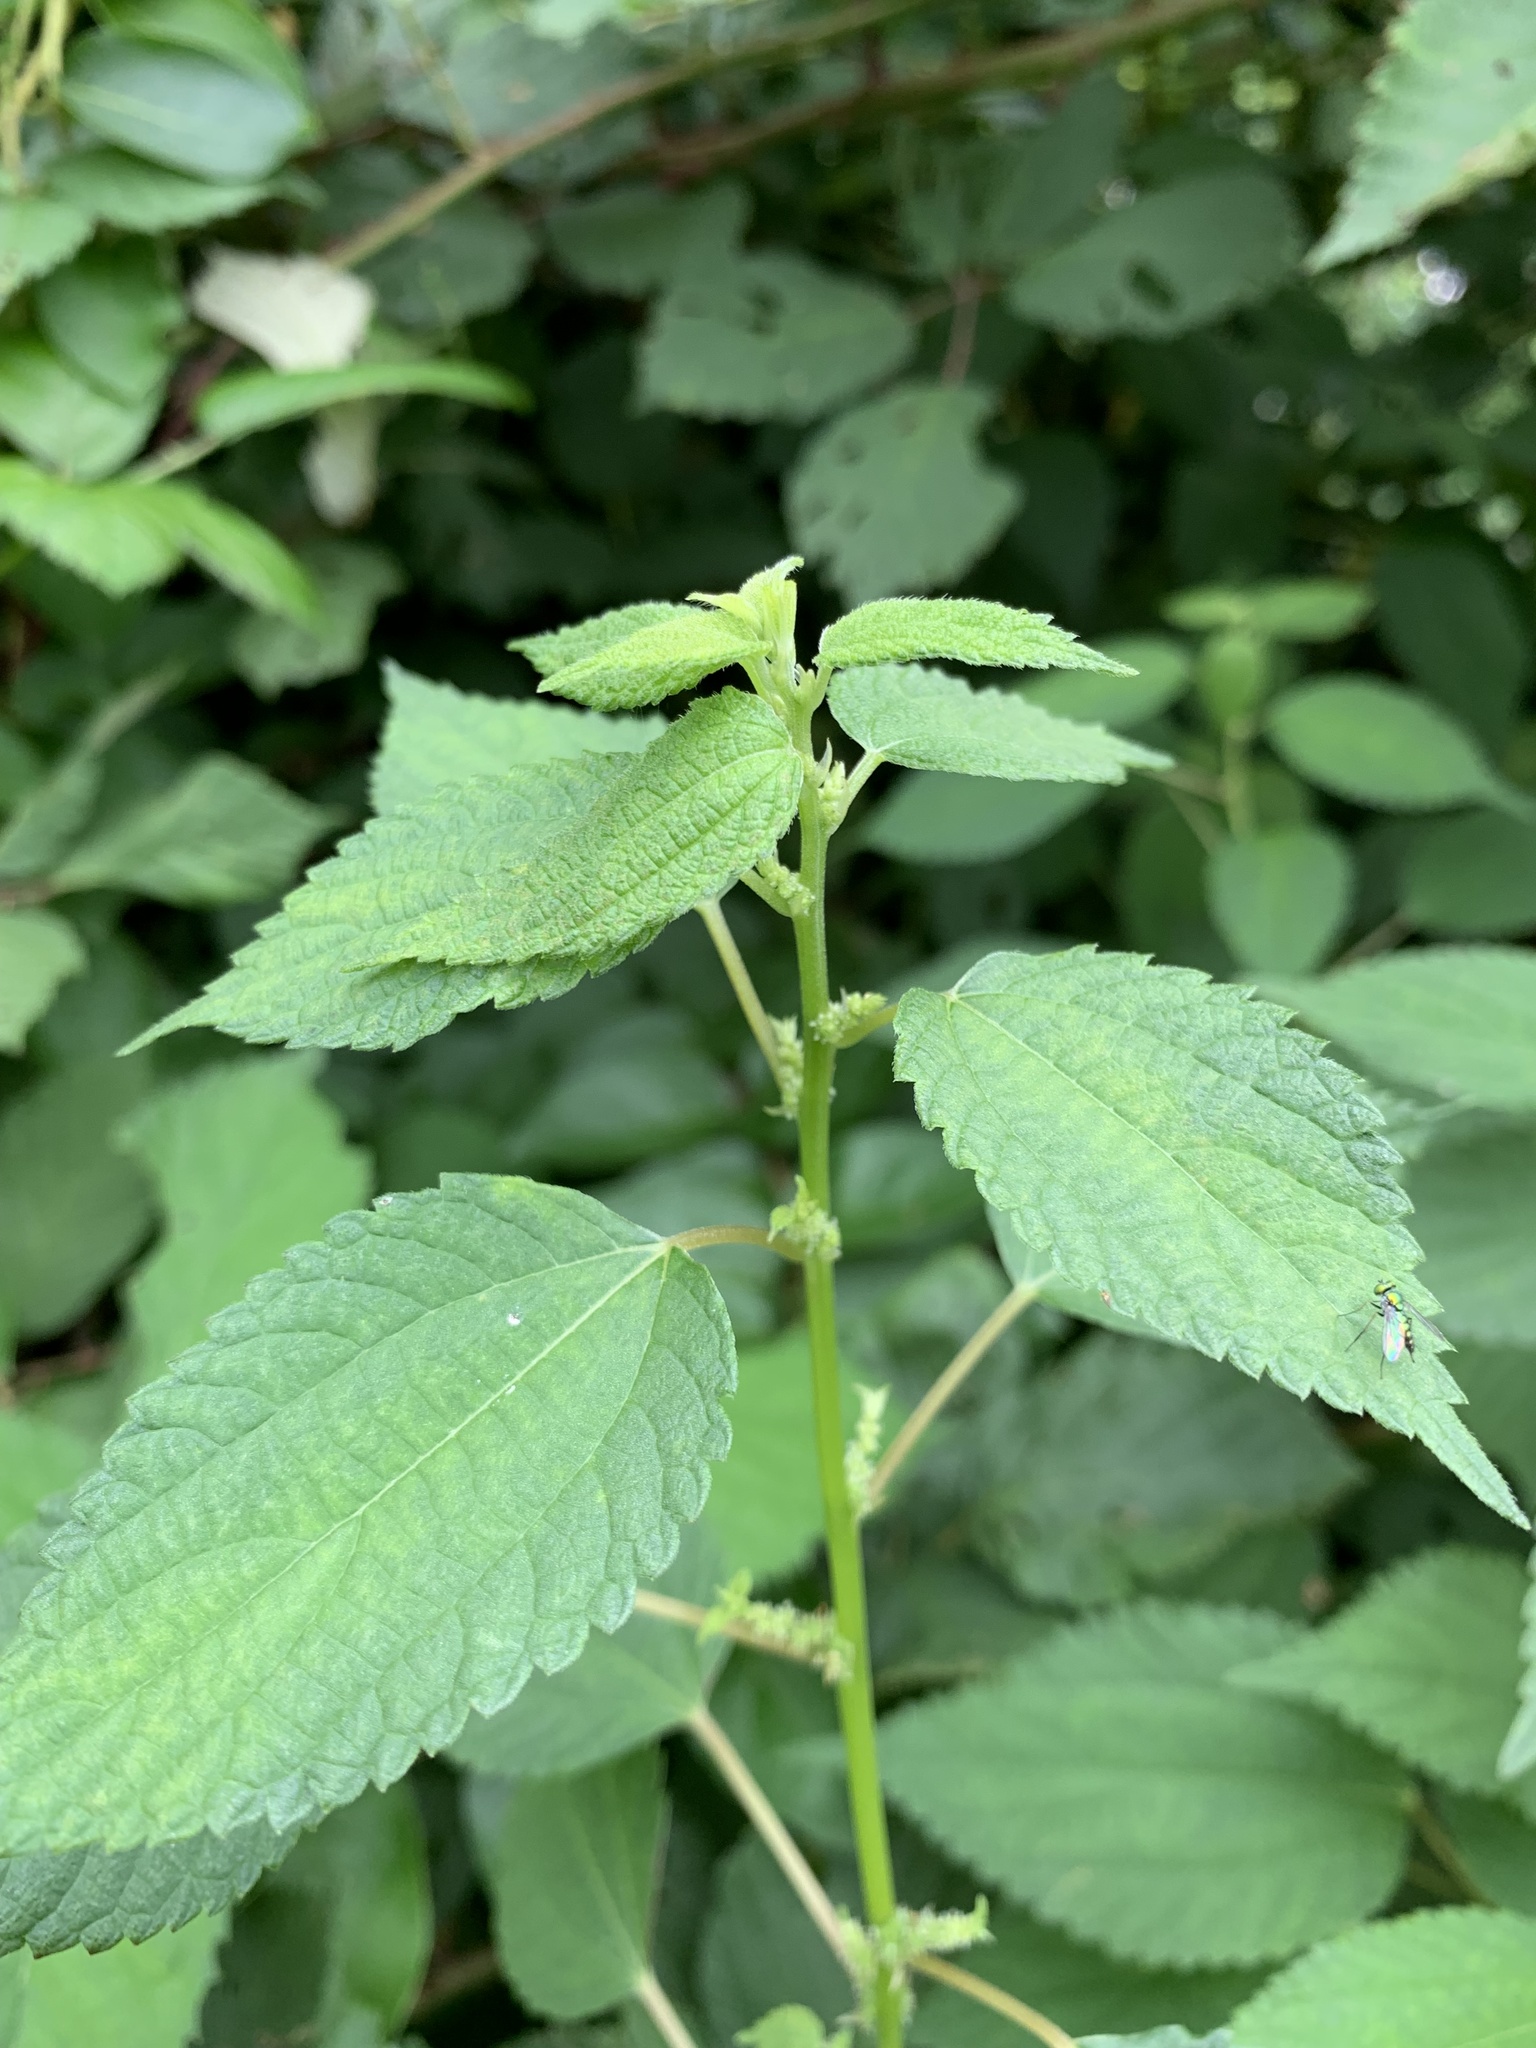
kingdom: Plantae
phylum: Tracheophyta
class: Magnoliopsida
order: Rosales
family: Urticaceae
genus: Boehmeria
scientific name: Boehmeria cylindrica
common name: Bog-hemp
